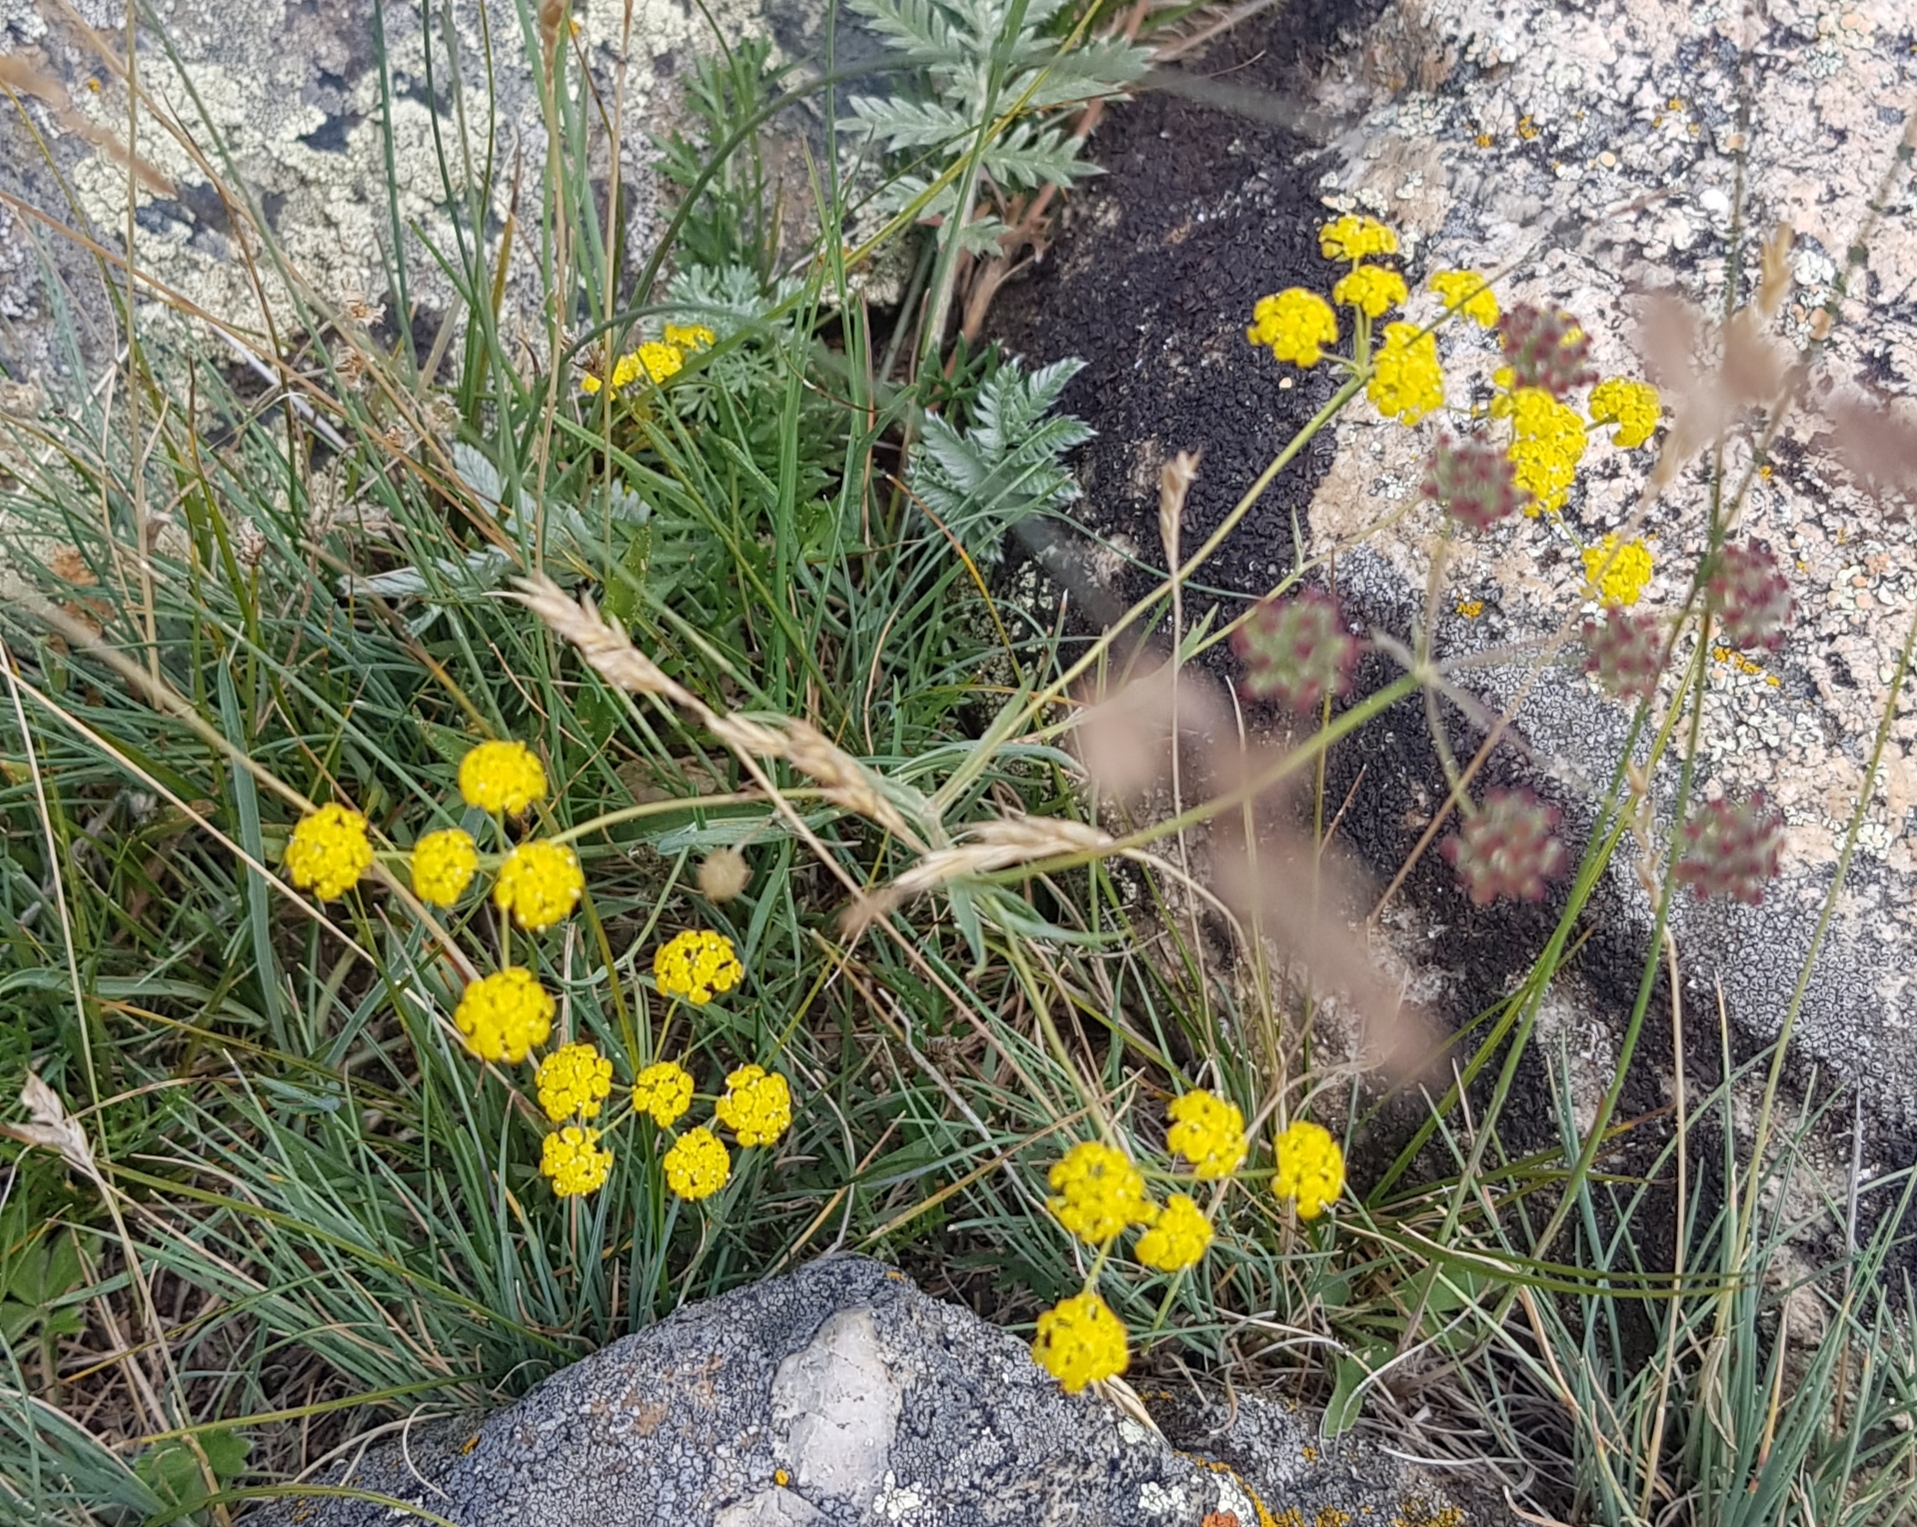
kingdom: Plantae
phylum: Tracheophyta
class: Magnoliopsida
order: Apiales
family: Apiaceae
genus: Bupleurum
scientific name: Bupleurum bicaule
